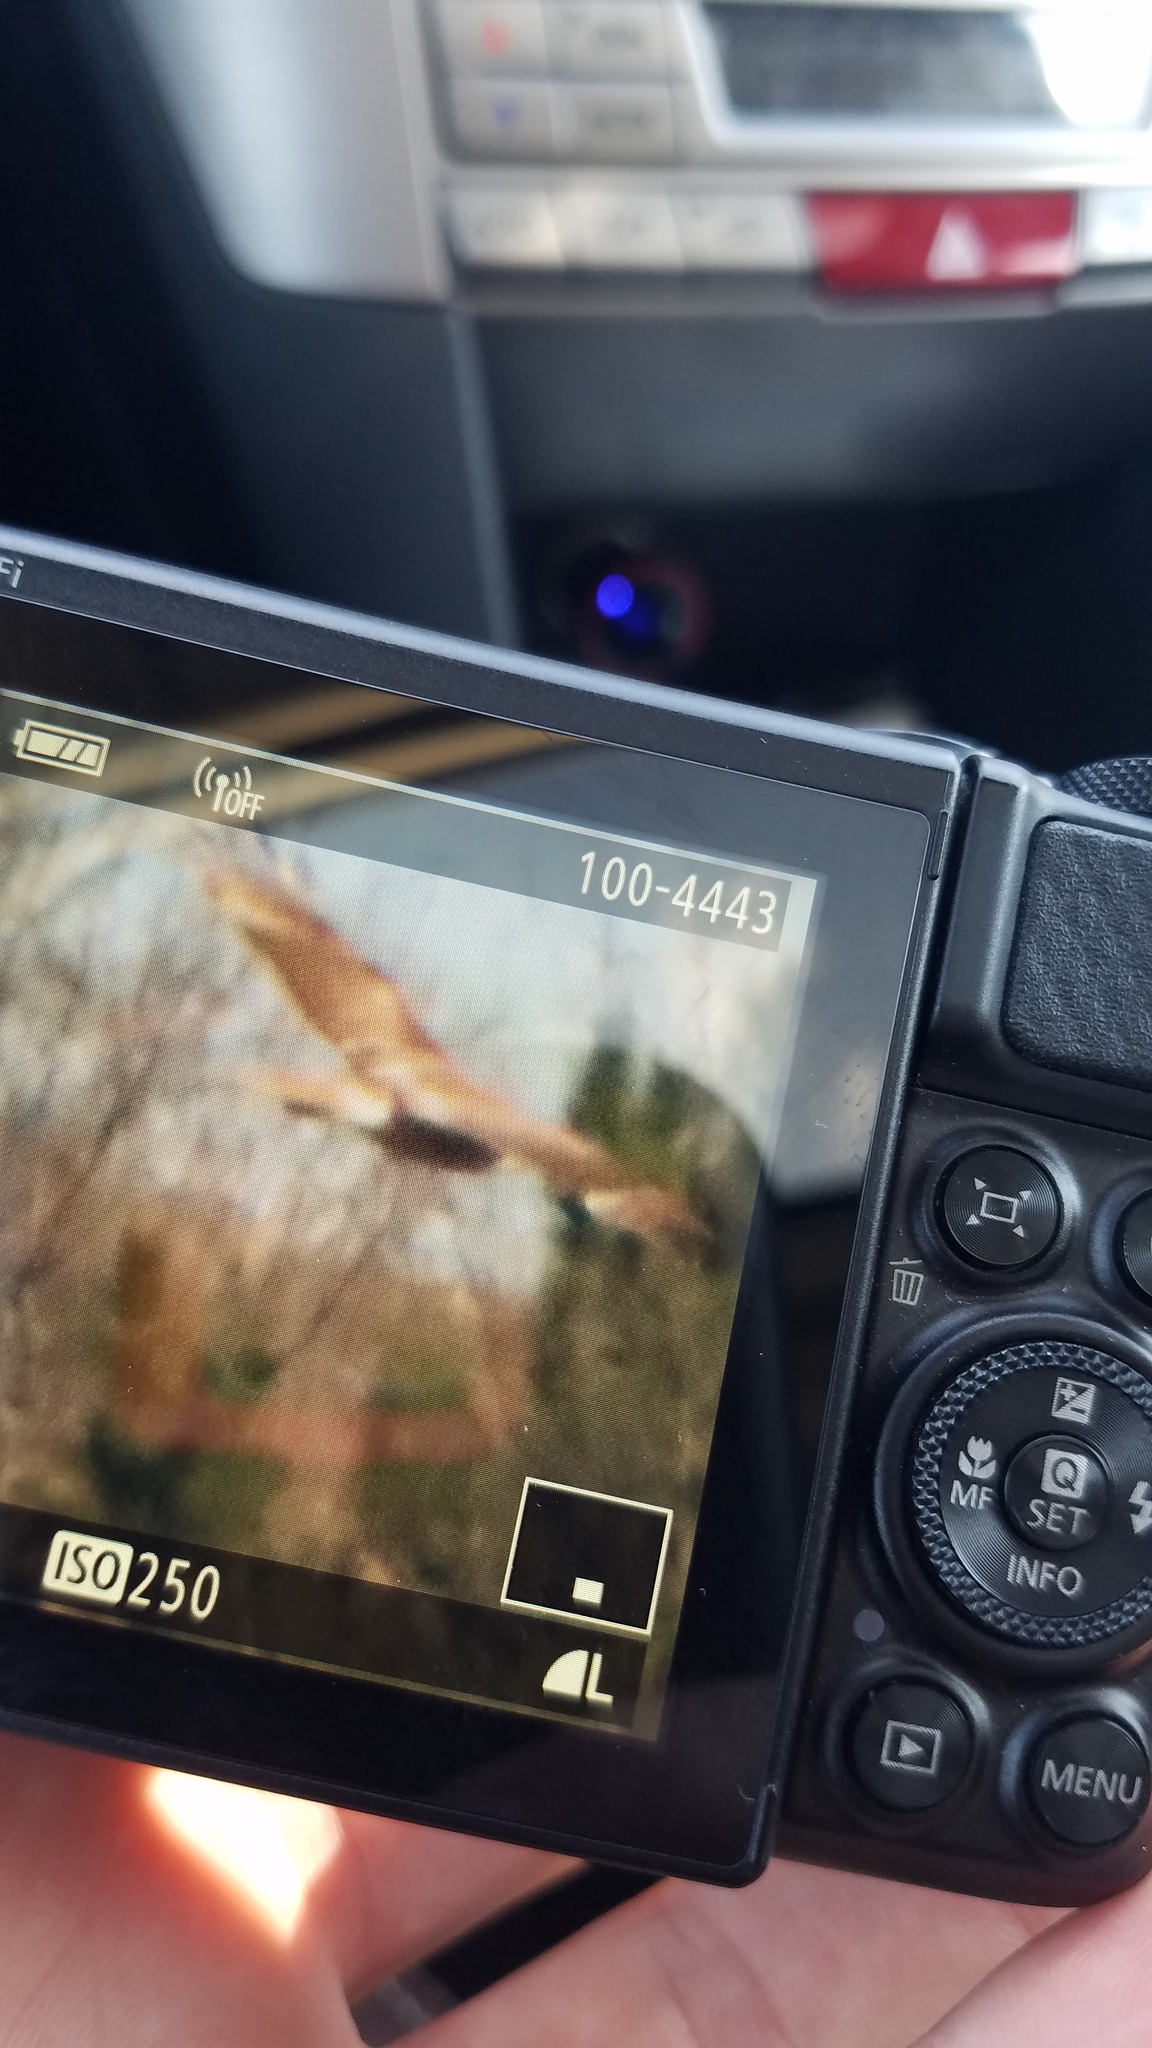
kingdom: Animalia
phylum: Chordata
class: Aves
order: Accipitriformes
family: Accipitridae
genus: Circus
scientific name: Circus cyaneus
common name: Hen harrier
